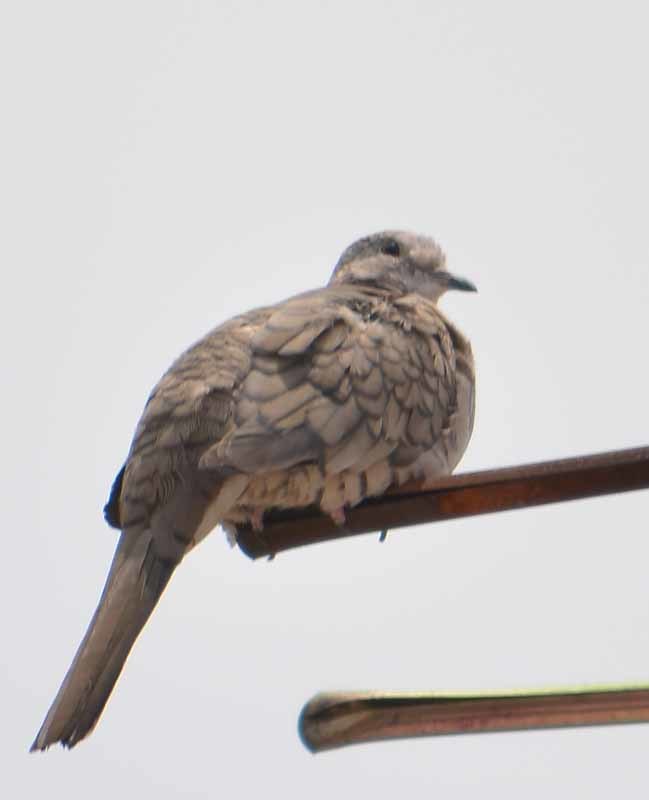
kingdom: Animalia
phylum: Chordata
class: Aves
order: Columbiformes
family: Columbidae
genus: Columbina
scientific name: Columbina inca
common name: Inca dove
